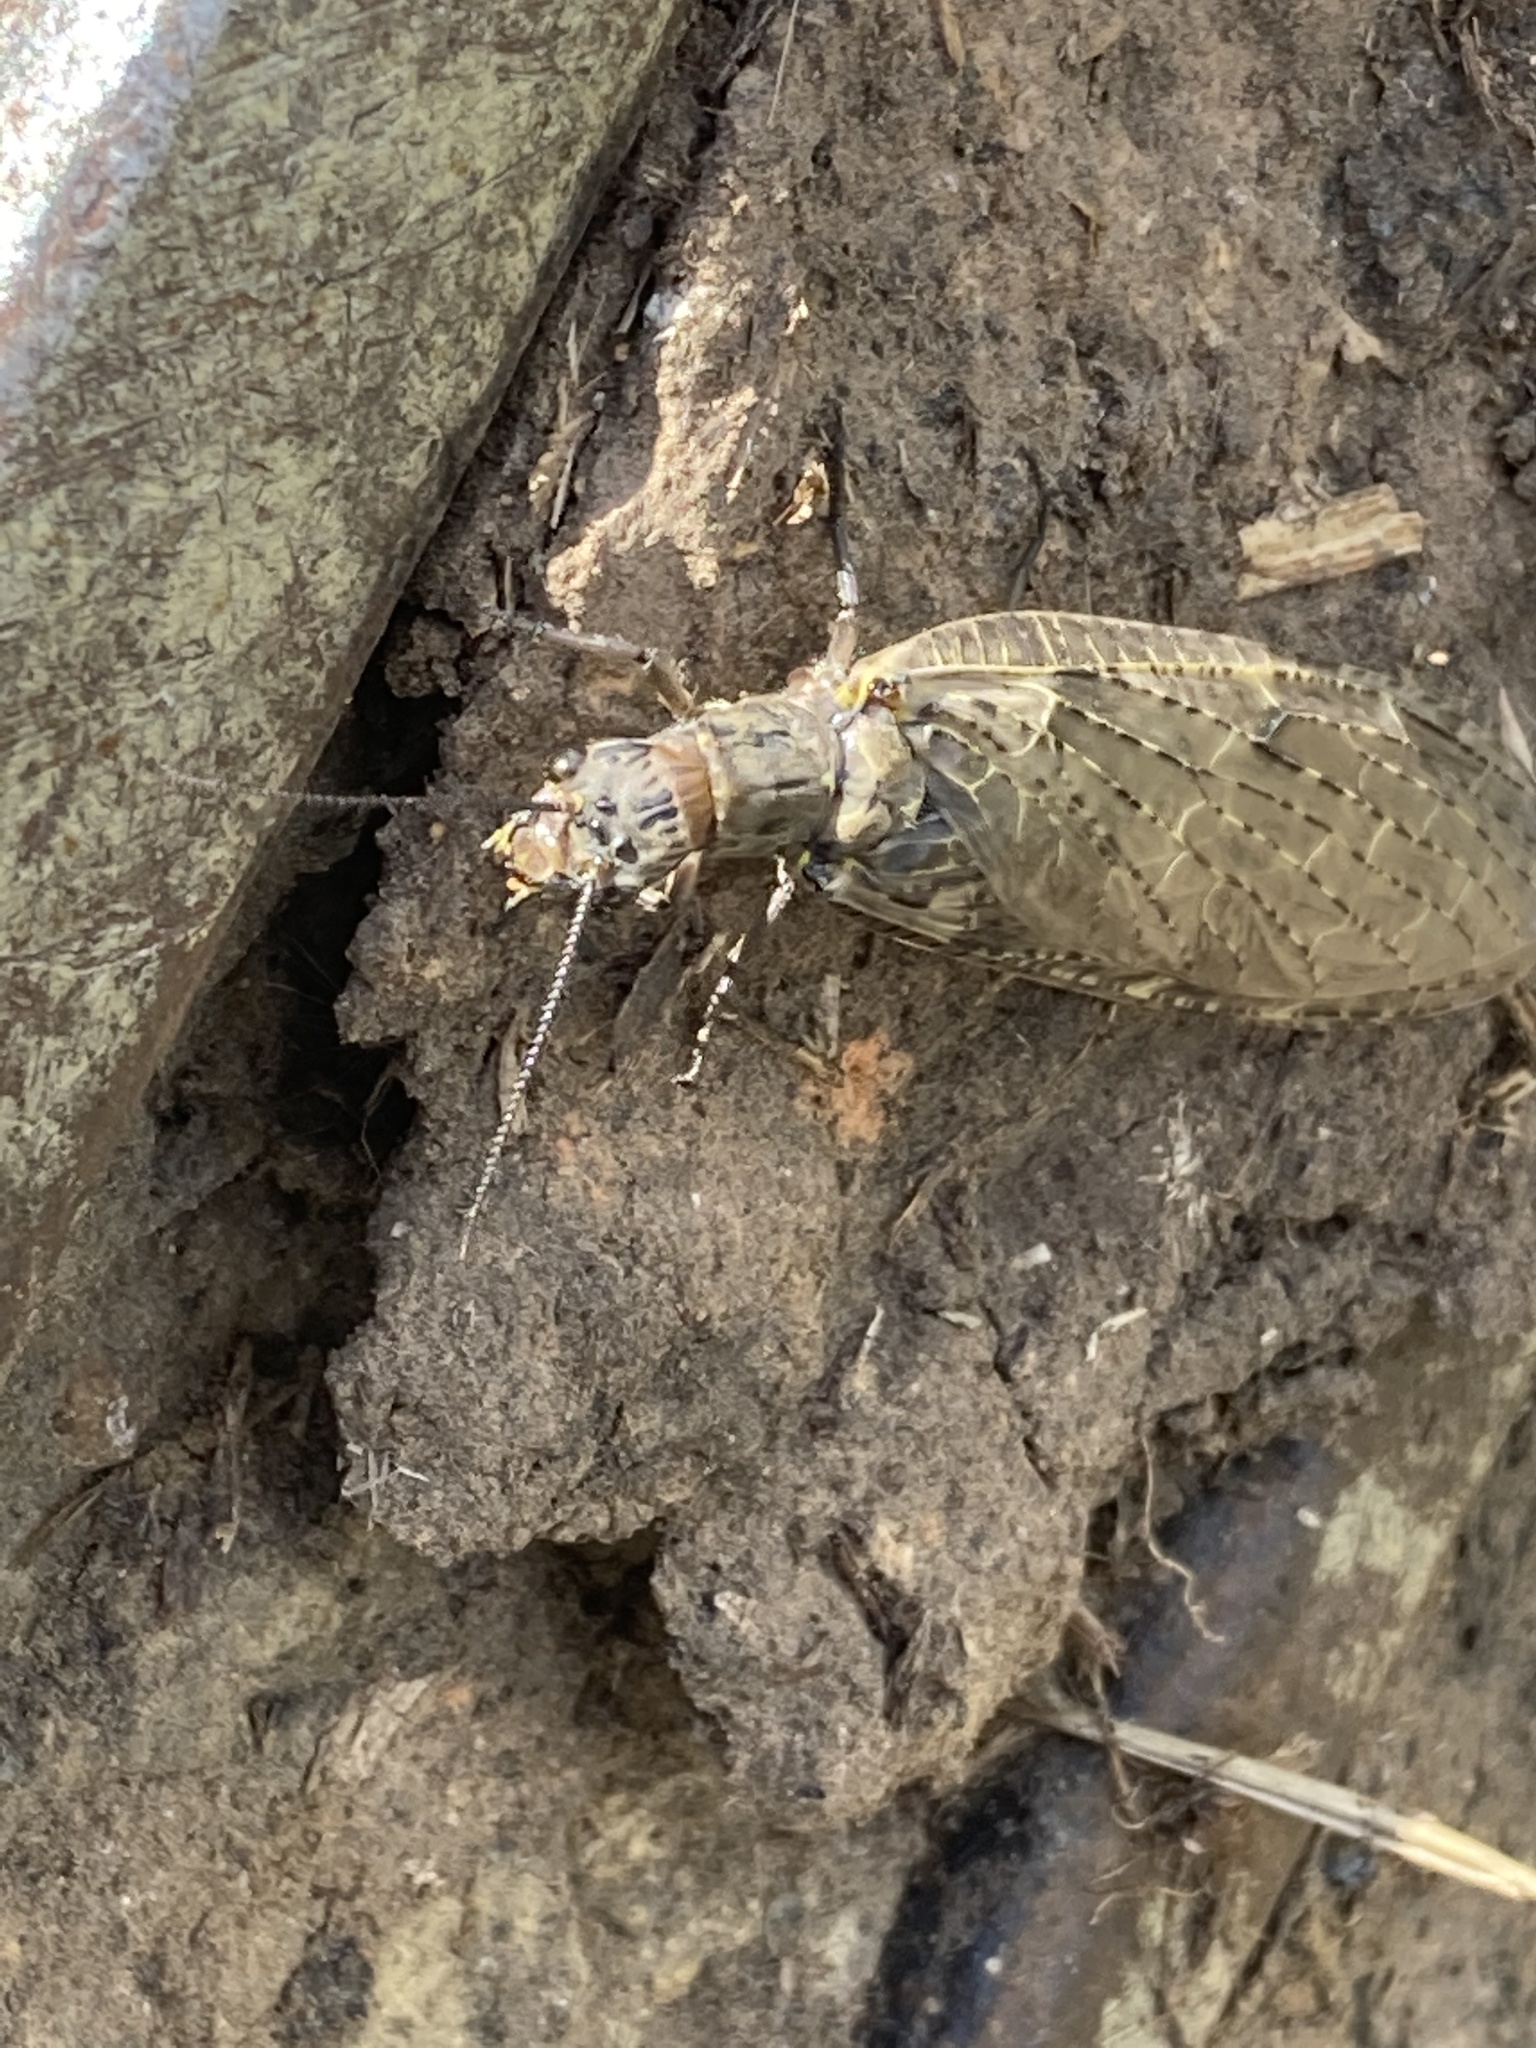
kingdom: Animalia
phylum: Arthropoda
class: Insecta
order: Megaloptera
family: Corydalidae
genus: Chauliodes
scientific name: Chauliodes rastricornis
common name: Spring fishfly
